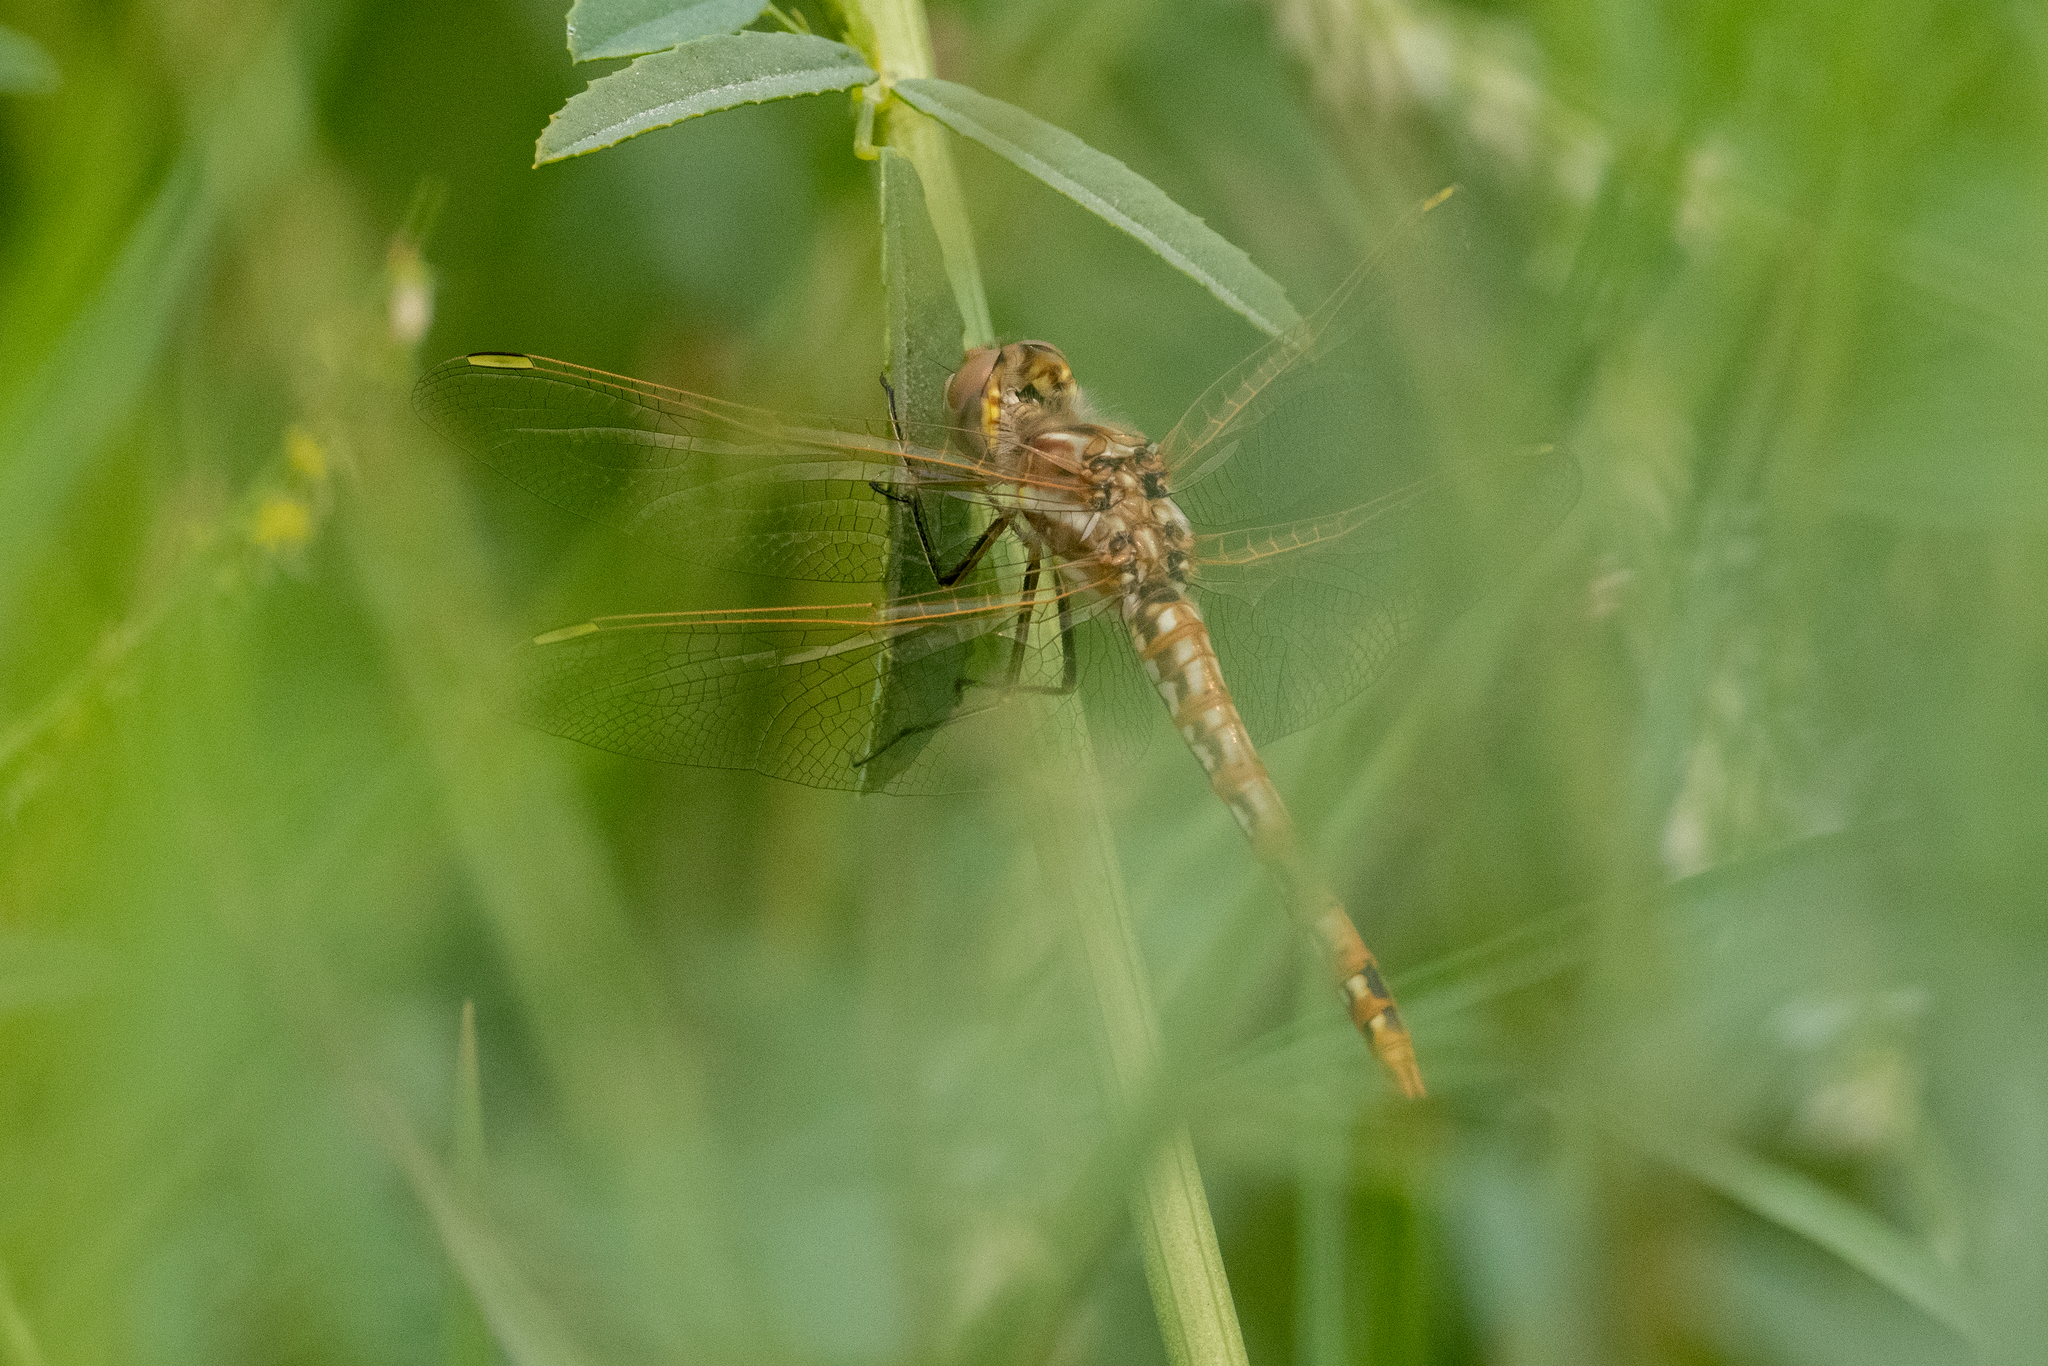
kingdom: Animalia
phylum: Arthropoda
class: Insecta
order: Odonata
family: Libellulidae
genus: Sympetrum
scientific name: Sympetrum corruptum
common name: Variegated meadowhawk
